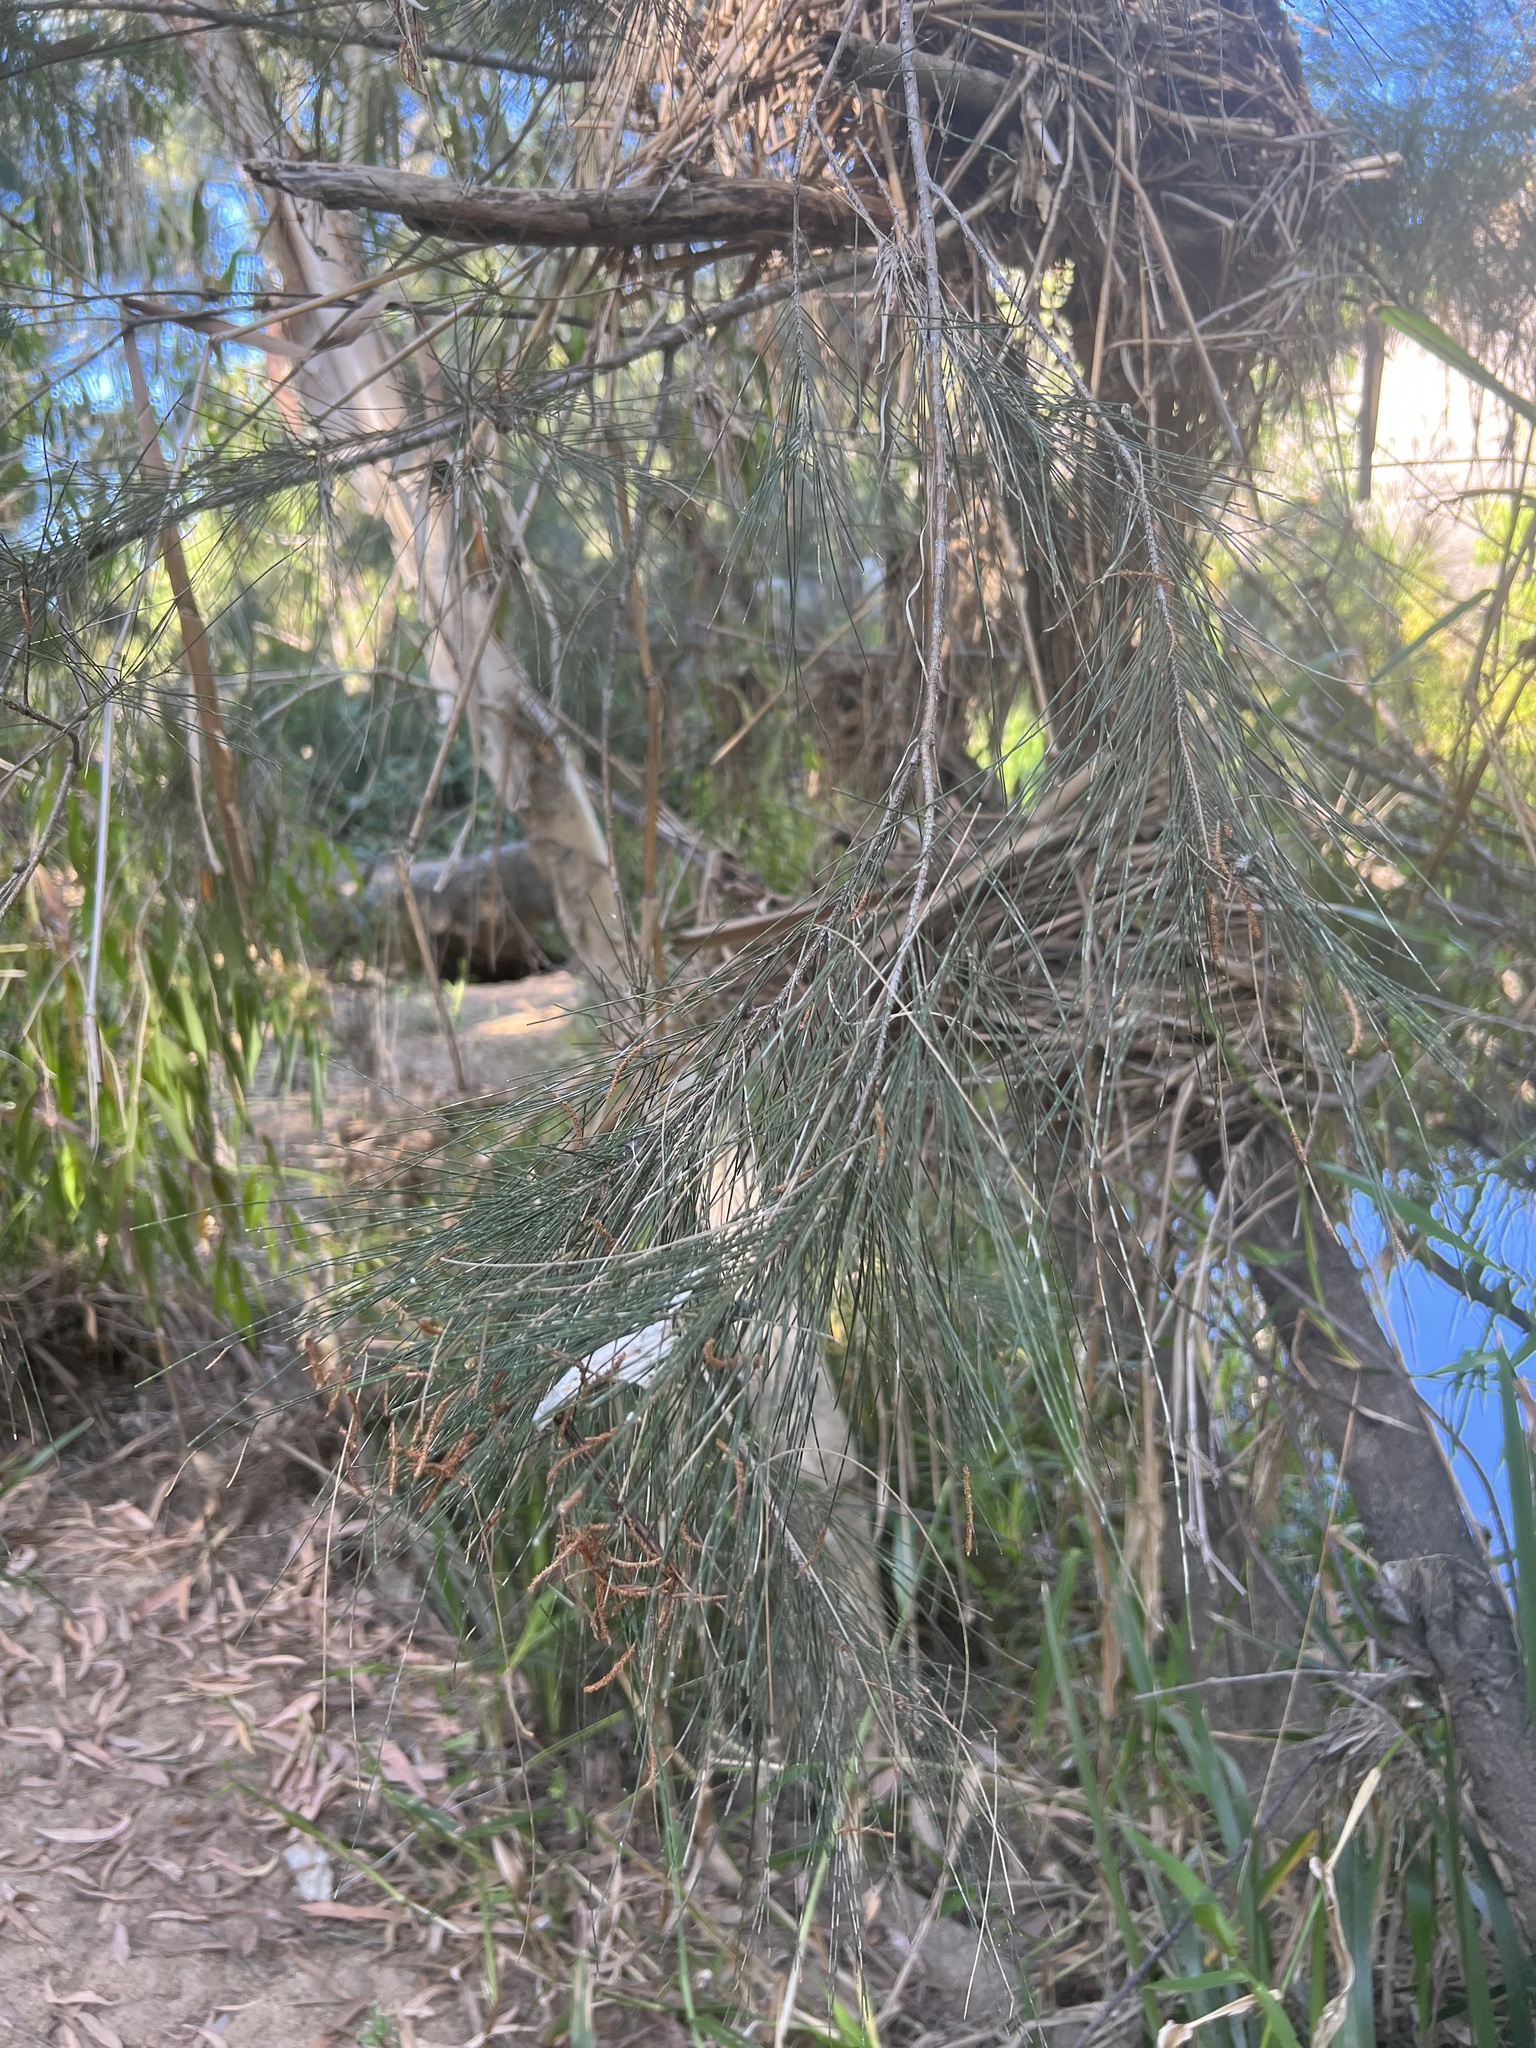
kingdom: Plantae
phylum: Tracheophyta
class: Magnoliopsida
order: Fagales
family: Casuarinaceae
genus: Casuarina
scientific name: Casuarina cunninghamiana
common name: River sheoak
